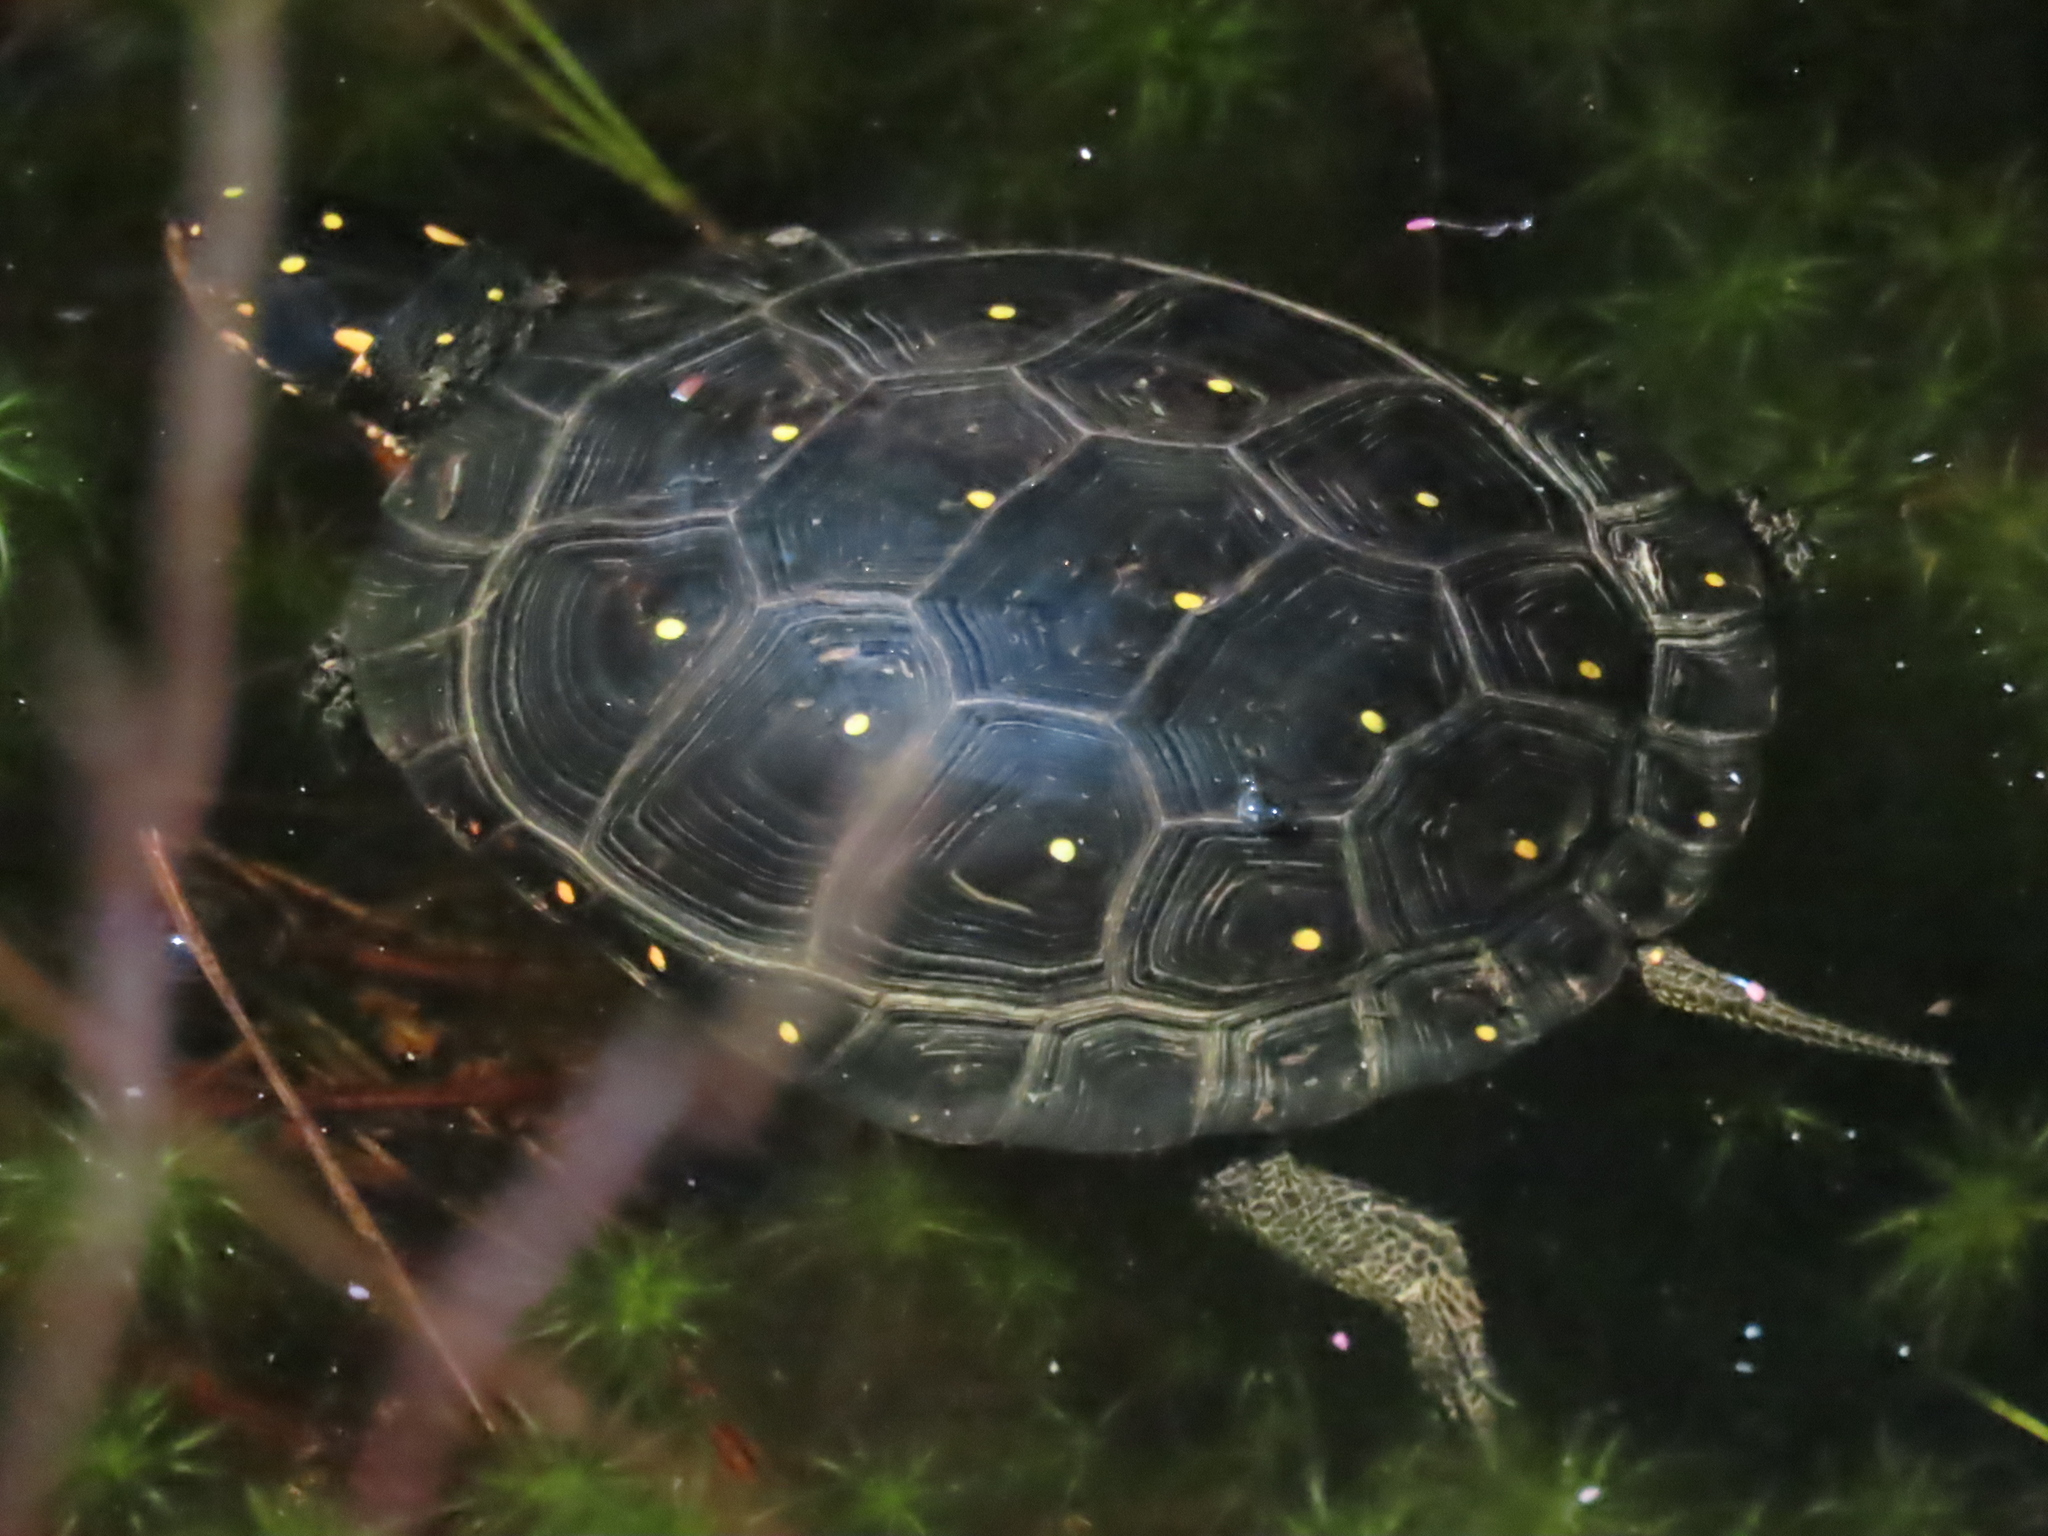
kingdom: Animalia
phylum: Chordata
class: Testudines
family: Emydidae
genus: Clemmys
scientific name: Clemmys guttata
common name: Spotted turtle
